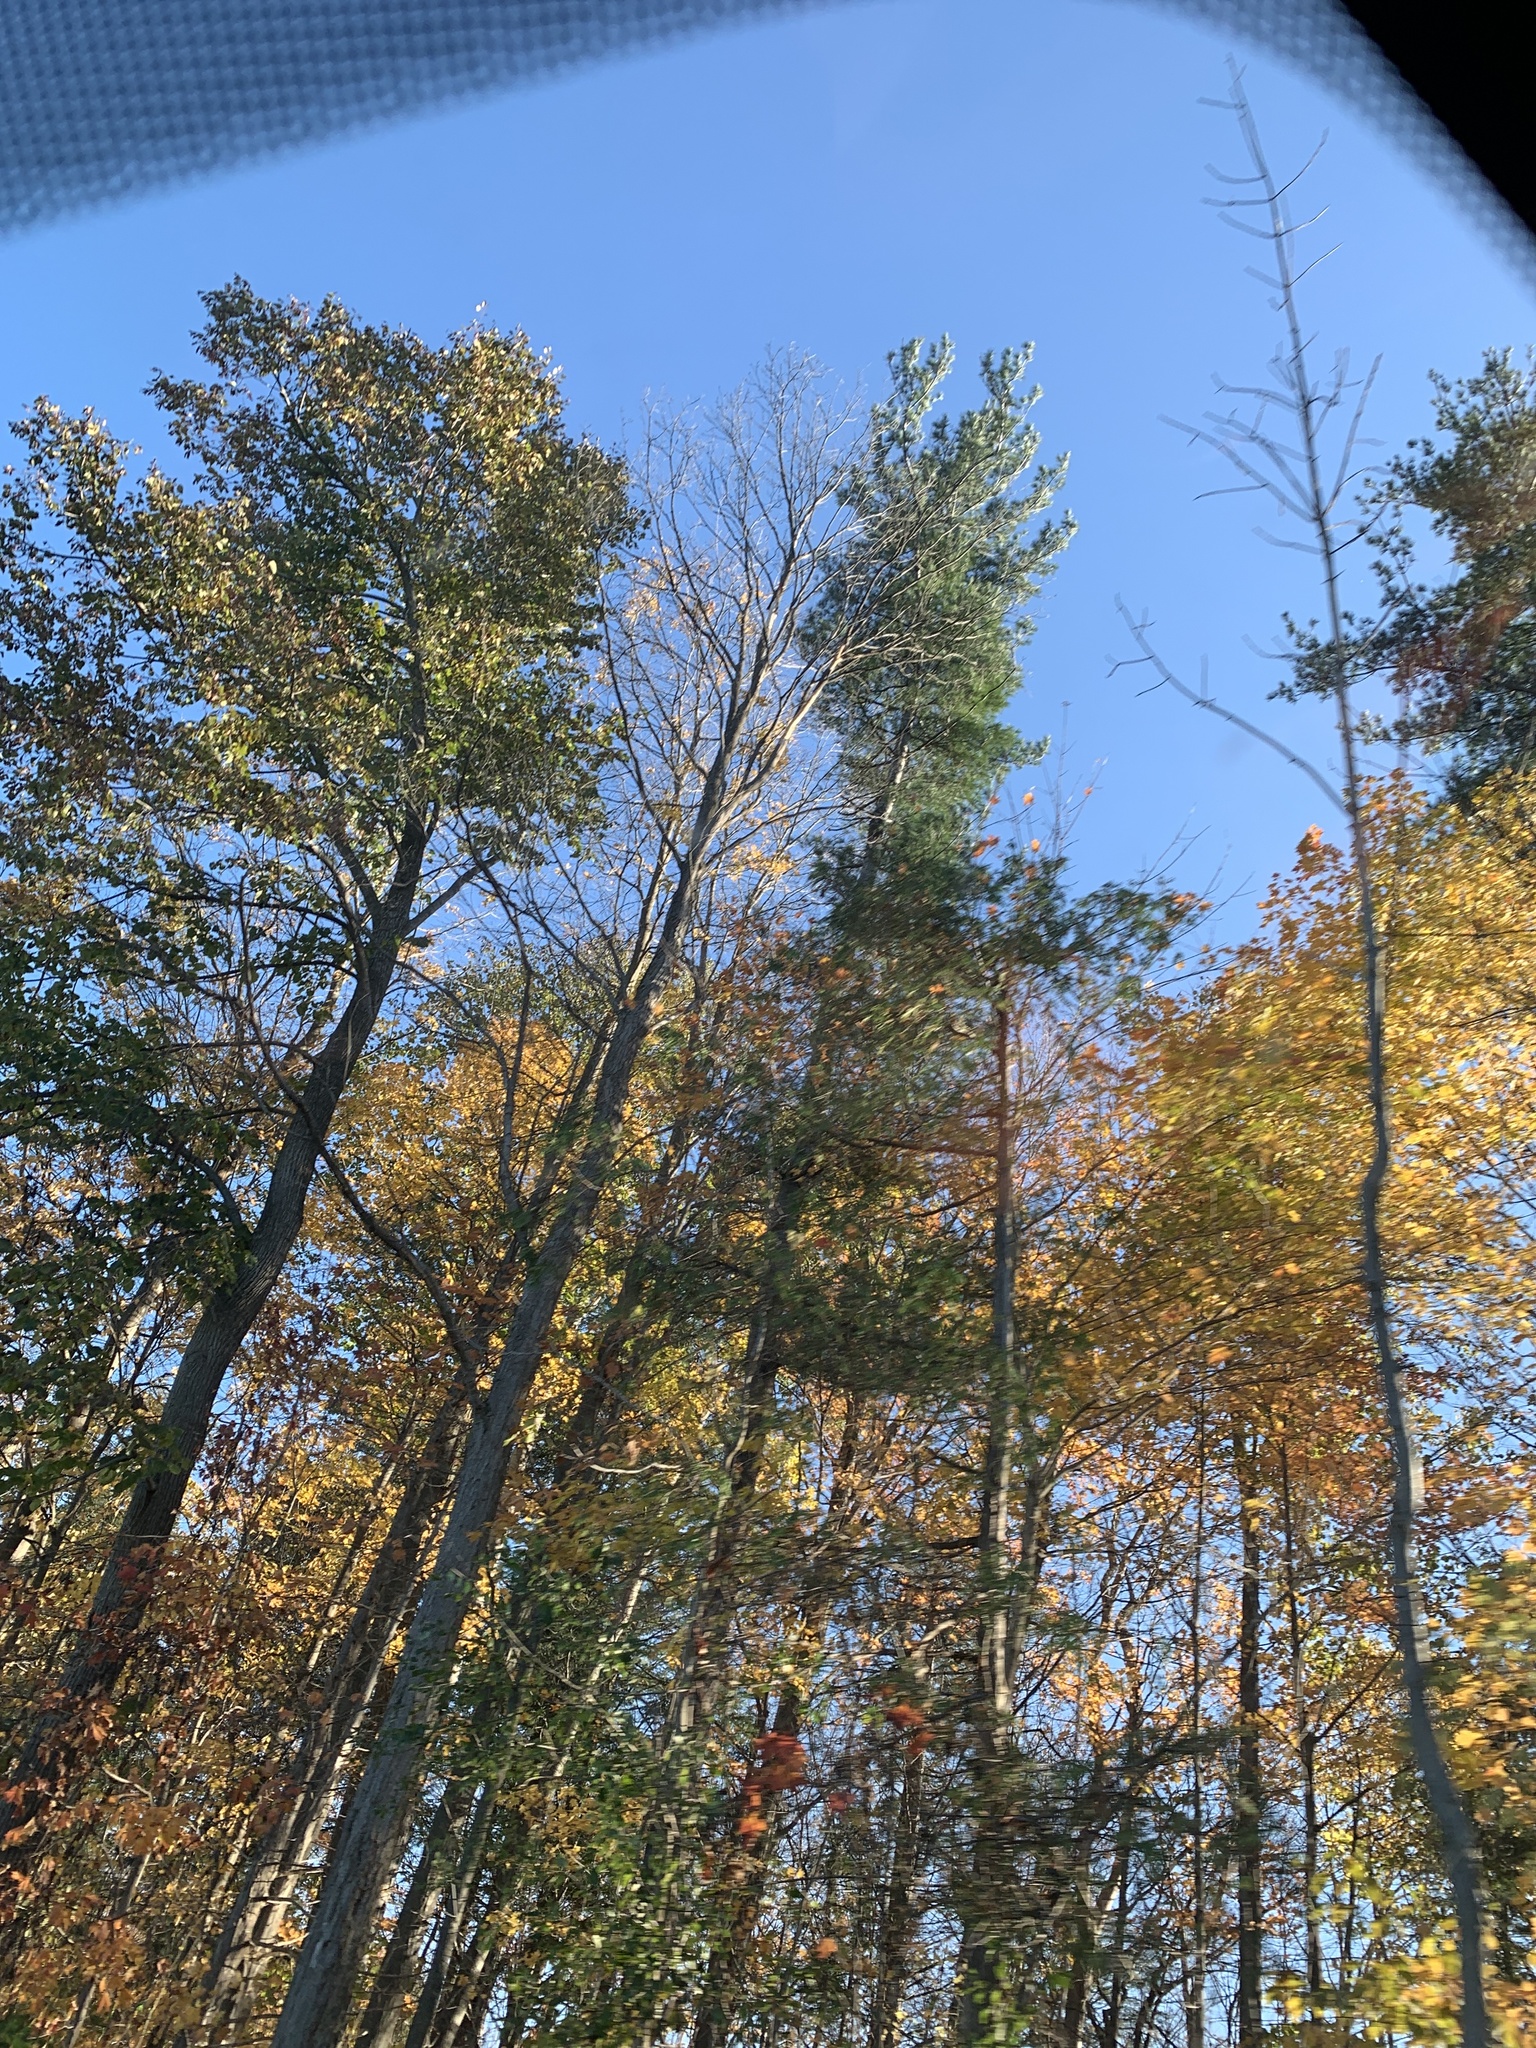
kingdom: Plantae
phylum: Tracheophyta
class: Pinopsida
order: Pinales
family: Pinaceae
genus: Pinus
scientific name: Pinus strobus
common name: Weymouth pine
